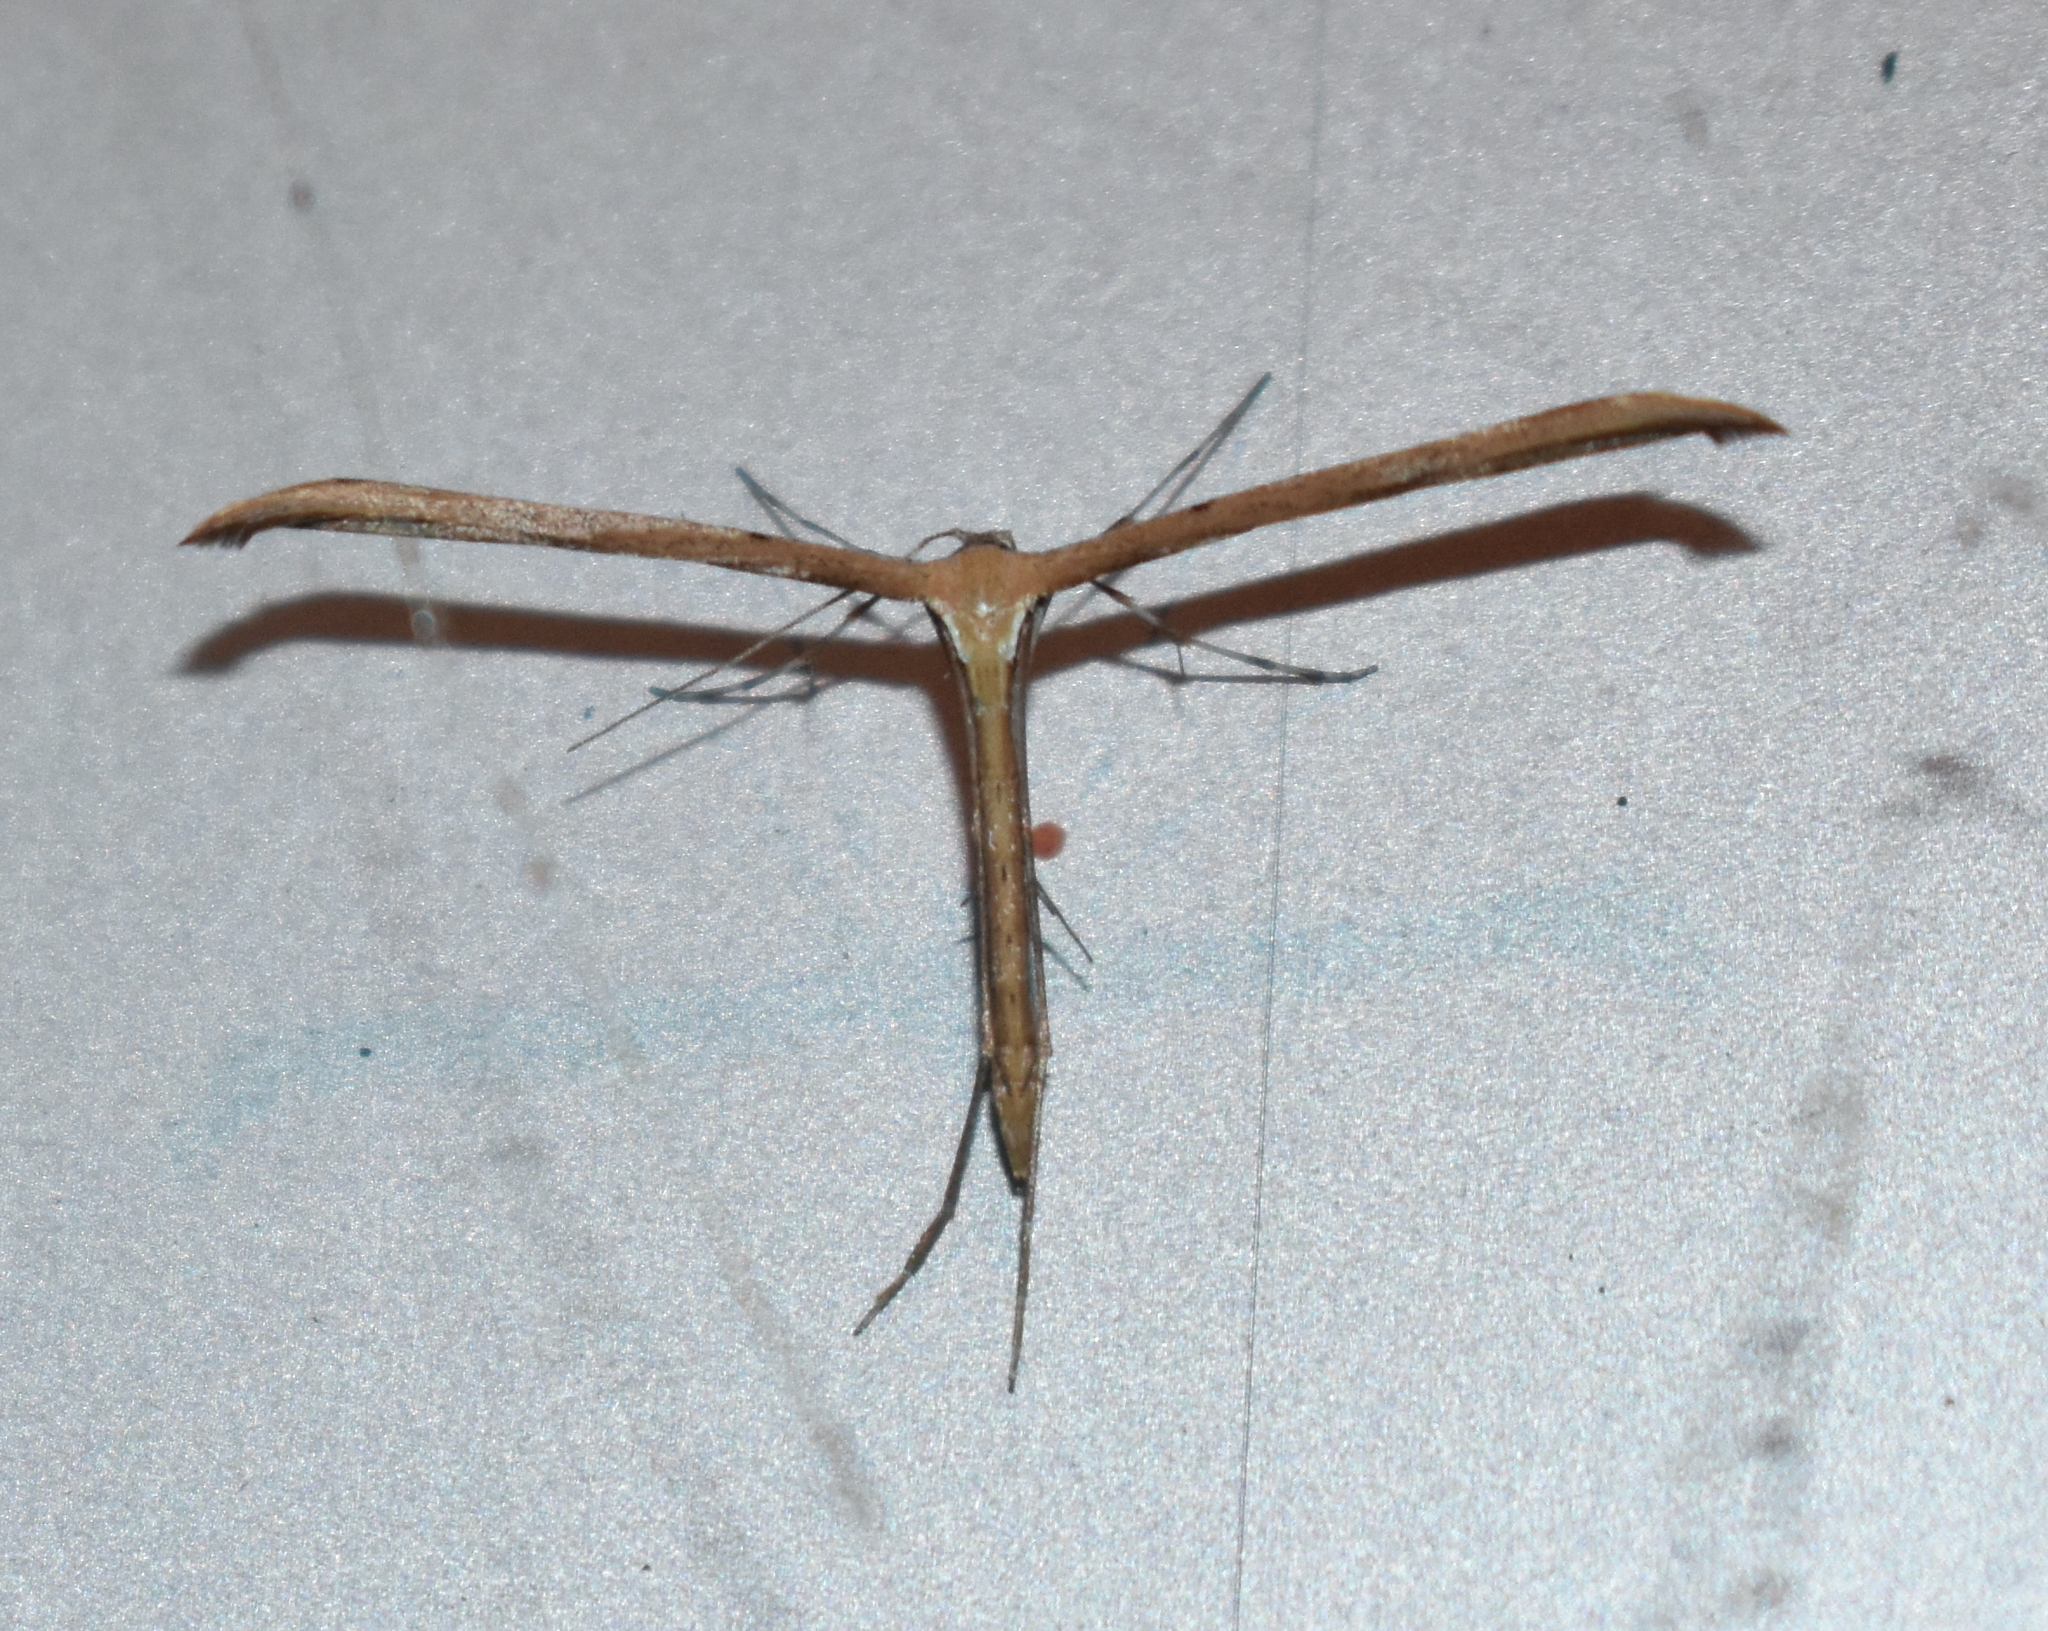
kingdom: Animalia
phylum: Arthropoda
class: Insecta
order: Lepidoptera
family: Pterophoridae
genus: Emmelina
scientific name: Emmelina monodactyla
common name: Common plume
